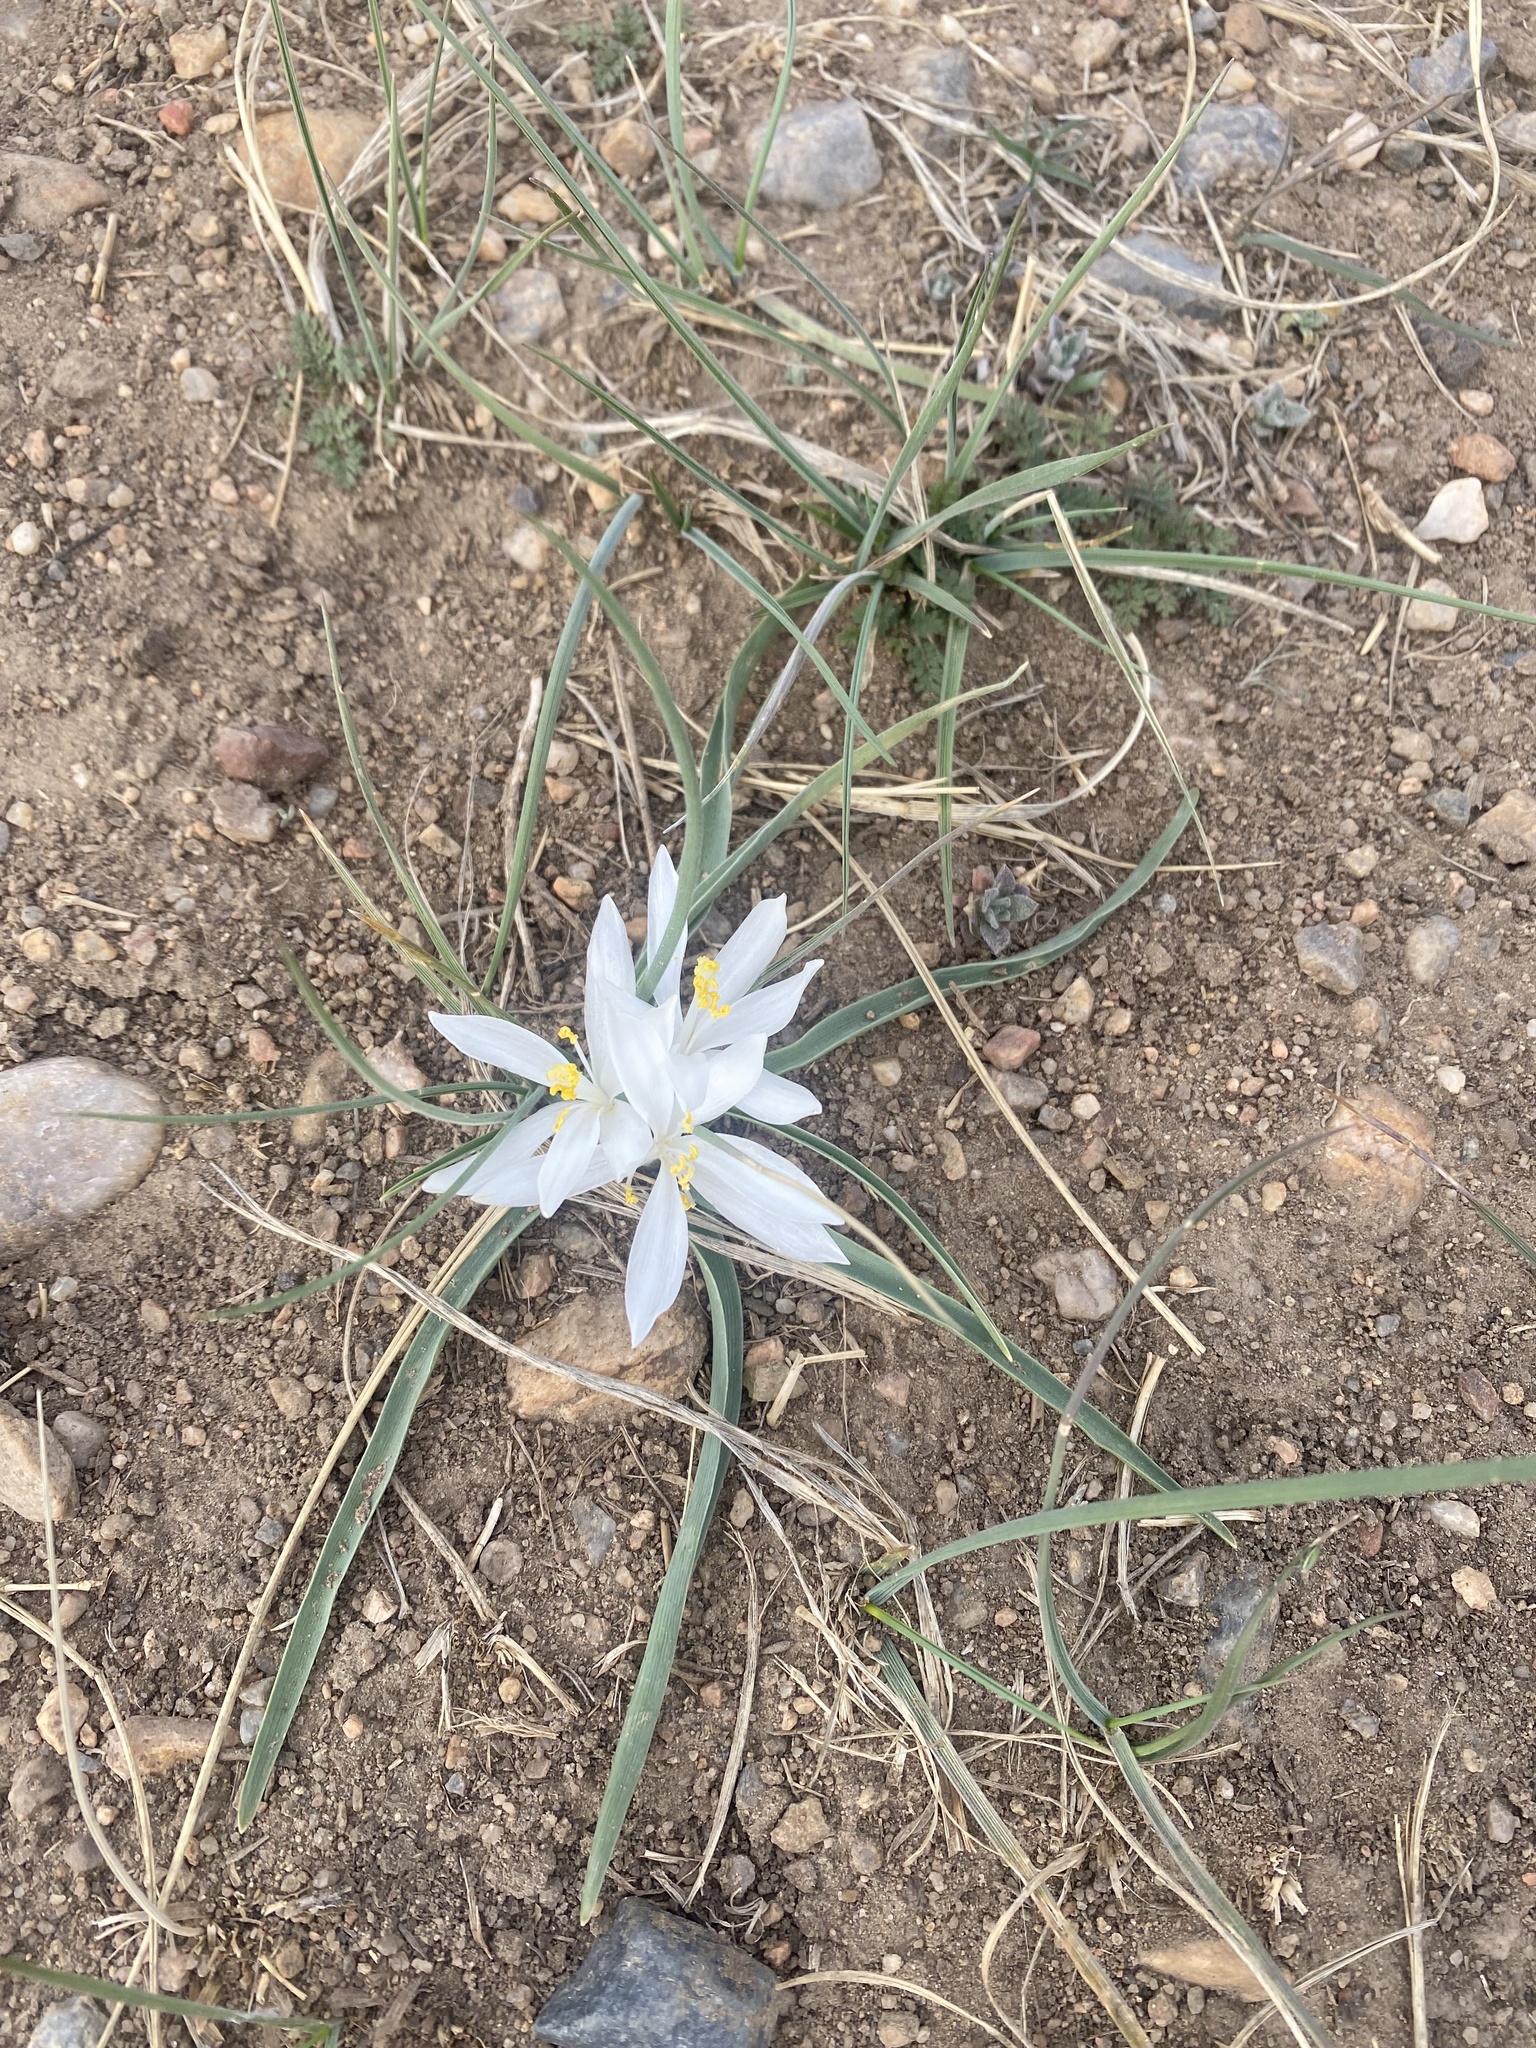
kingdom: Plantae
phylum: Tracheophyta
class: Liliopsida
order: Asparagales
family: Asparagaceae
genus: Leucocrinum
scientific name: Leucocrinum montanum
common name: Mountain-lily
